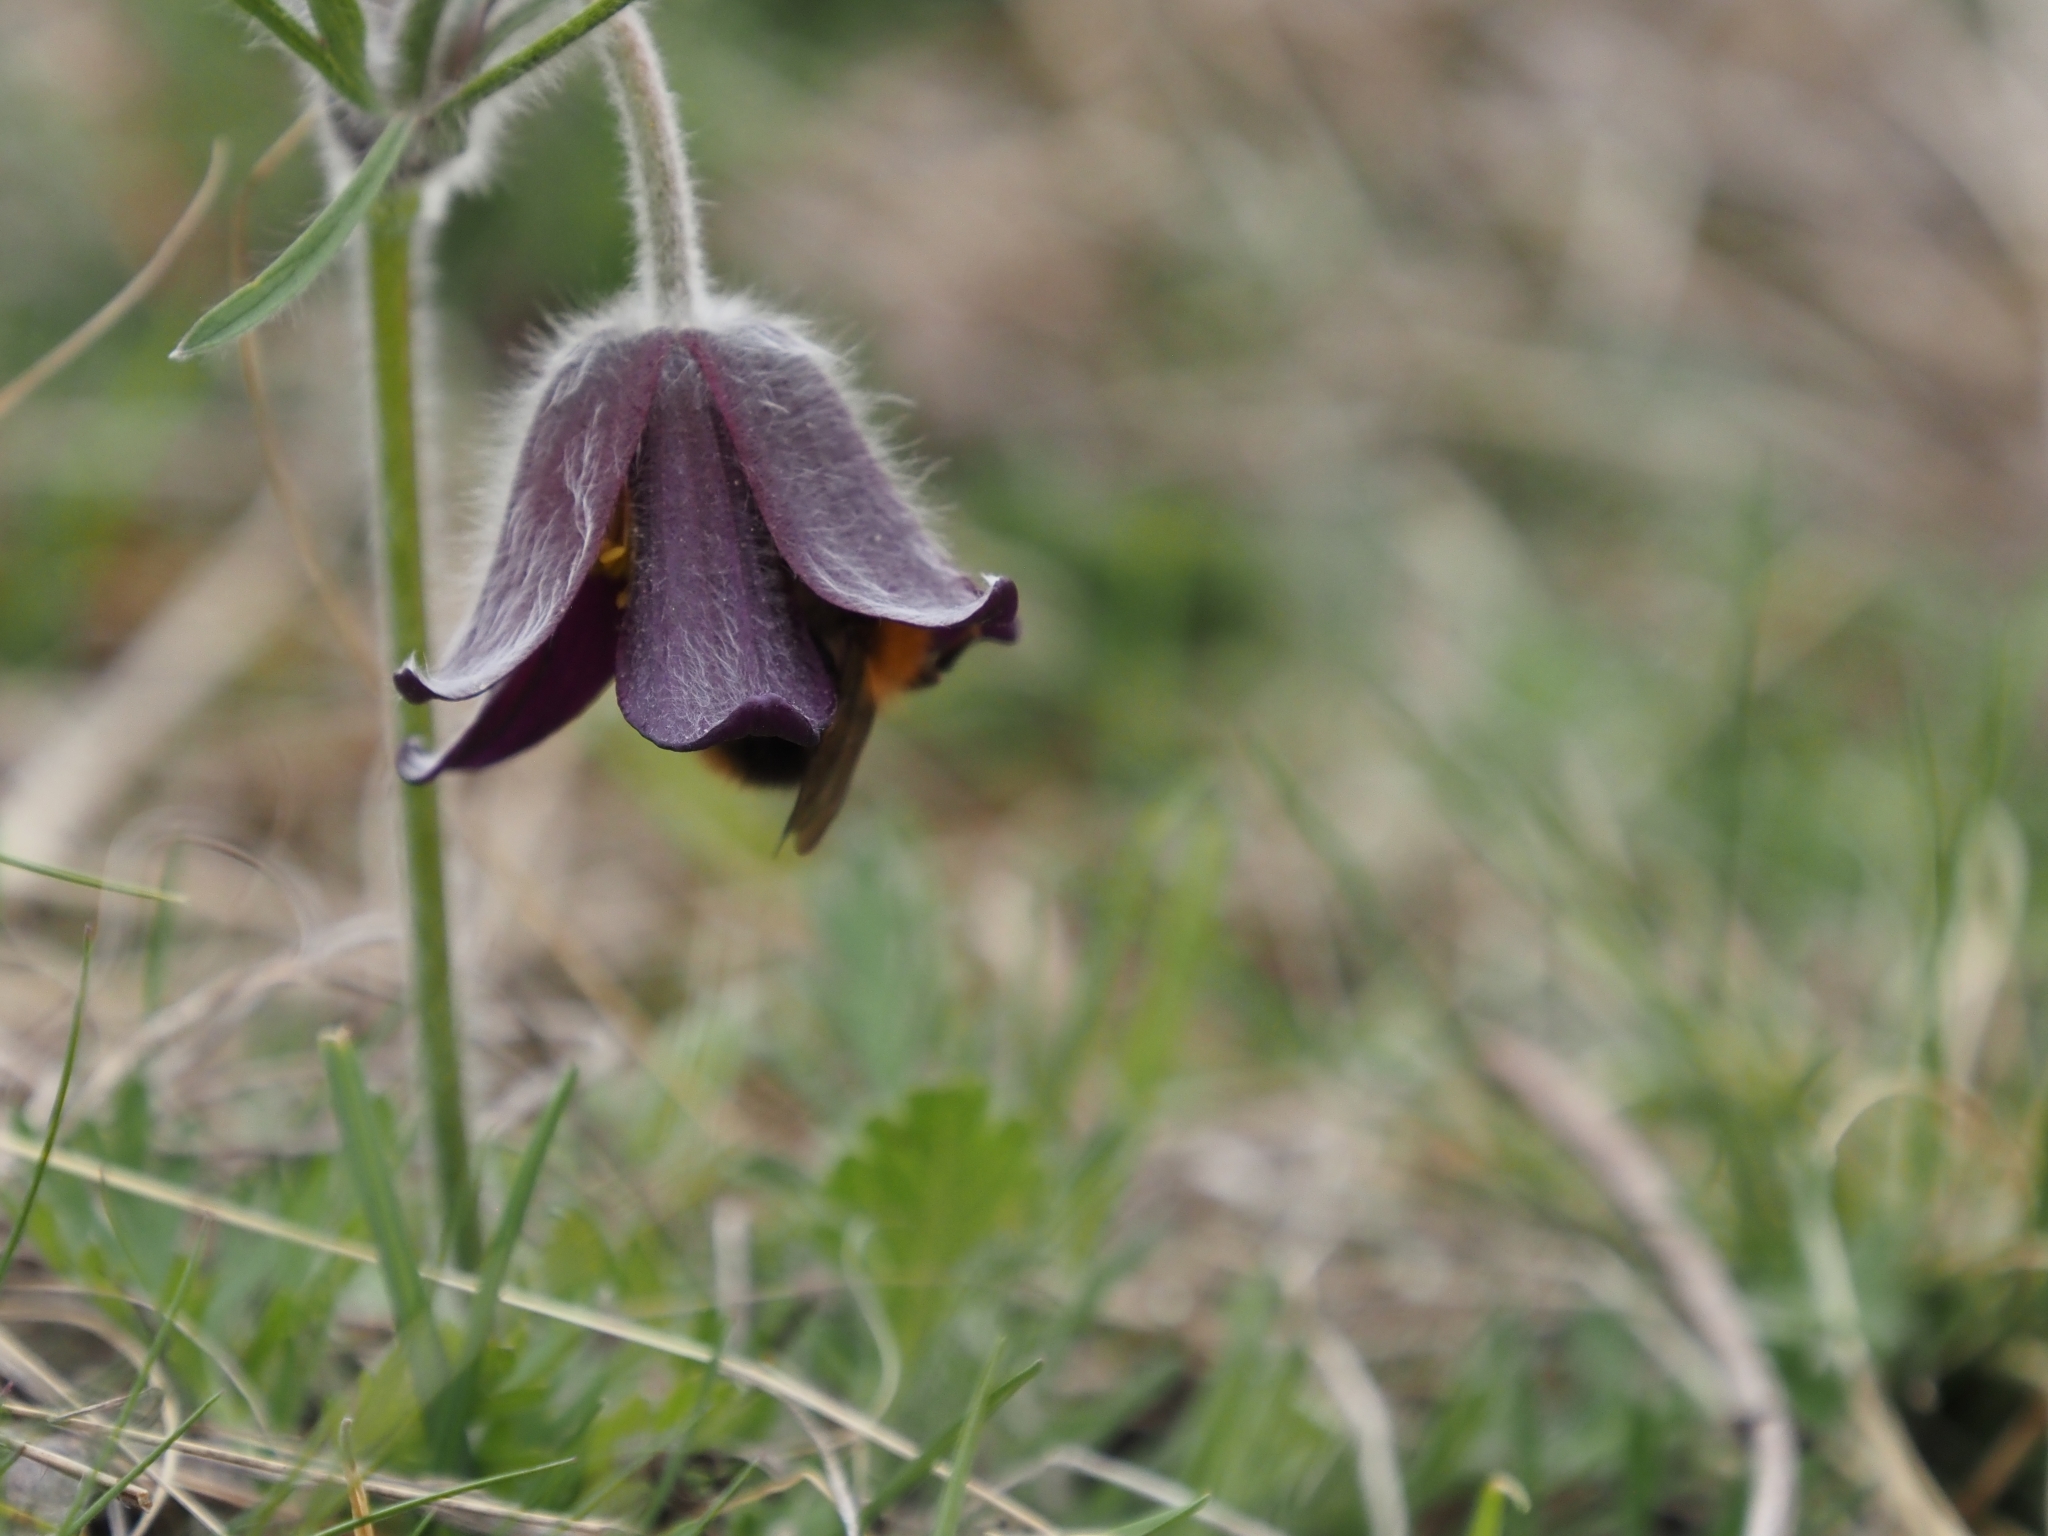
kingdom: Animalia
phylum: Arthropoda
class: Insecta
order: Hymenoptera
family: Apidae
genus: Bombus
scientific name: Bombus pascuorum
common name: Common carder bee
